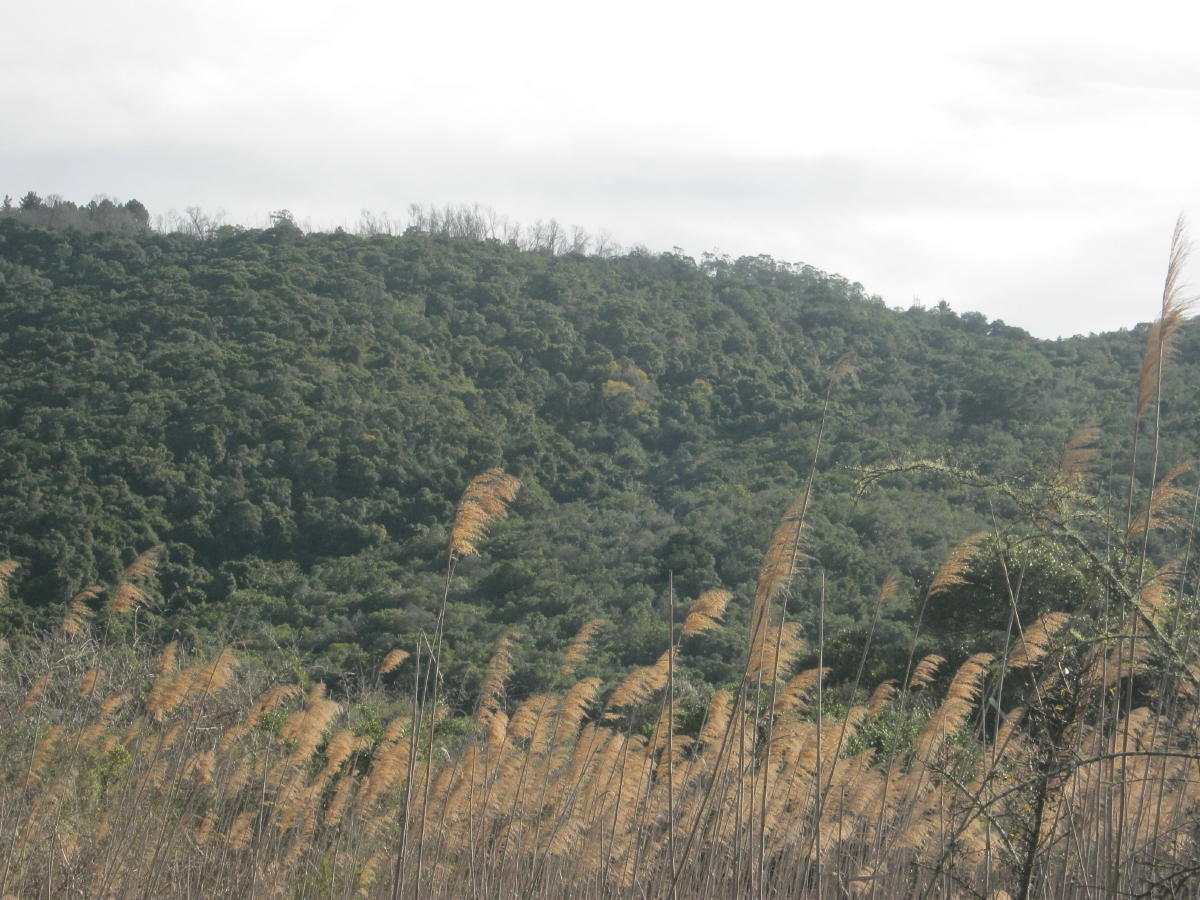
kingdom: Plantae
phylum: Tracheophyta
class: Liliopsida
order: Poales
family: Poaceae
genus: Phragmites
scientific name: Phragmites australis
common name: Common reed
